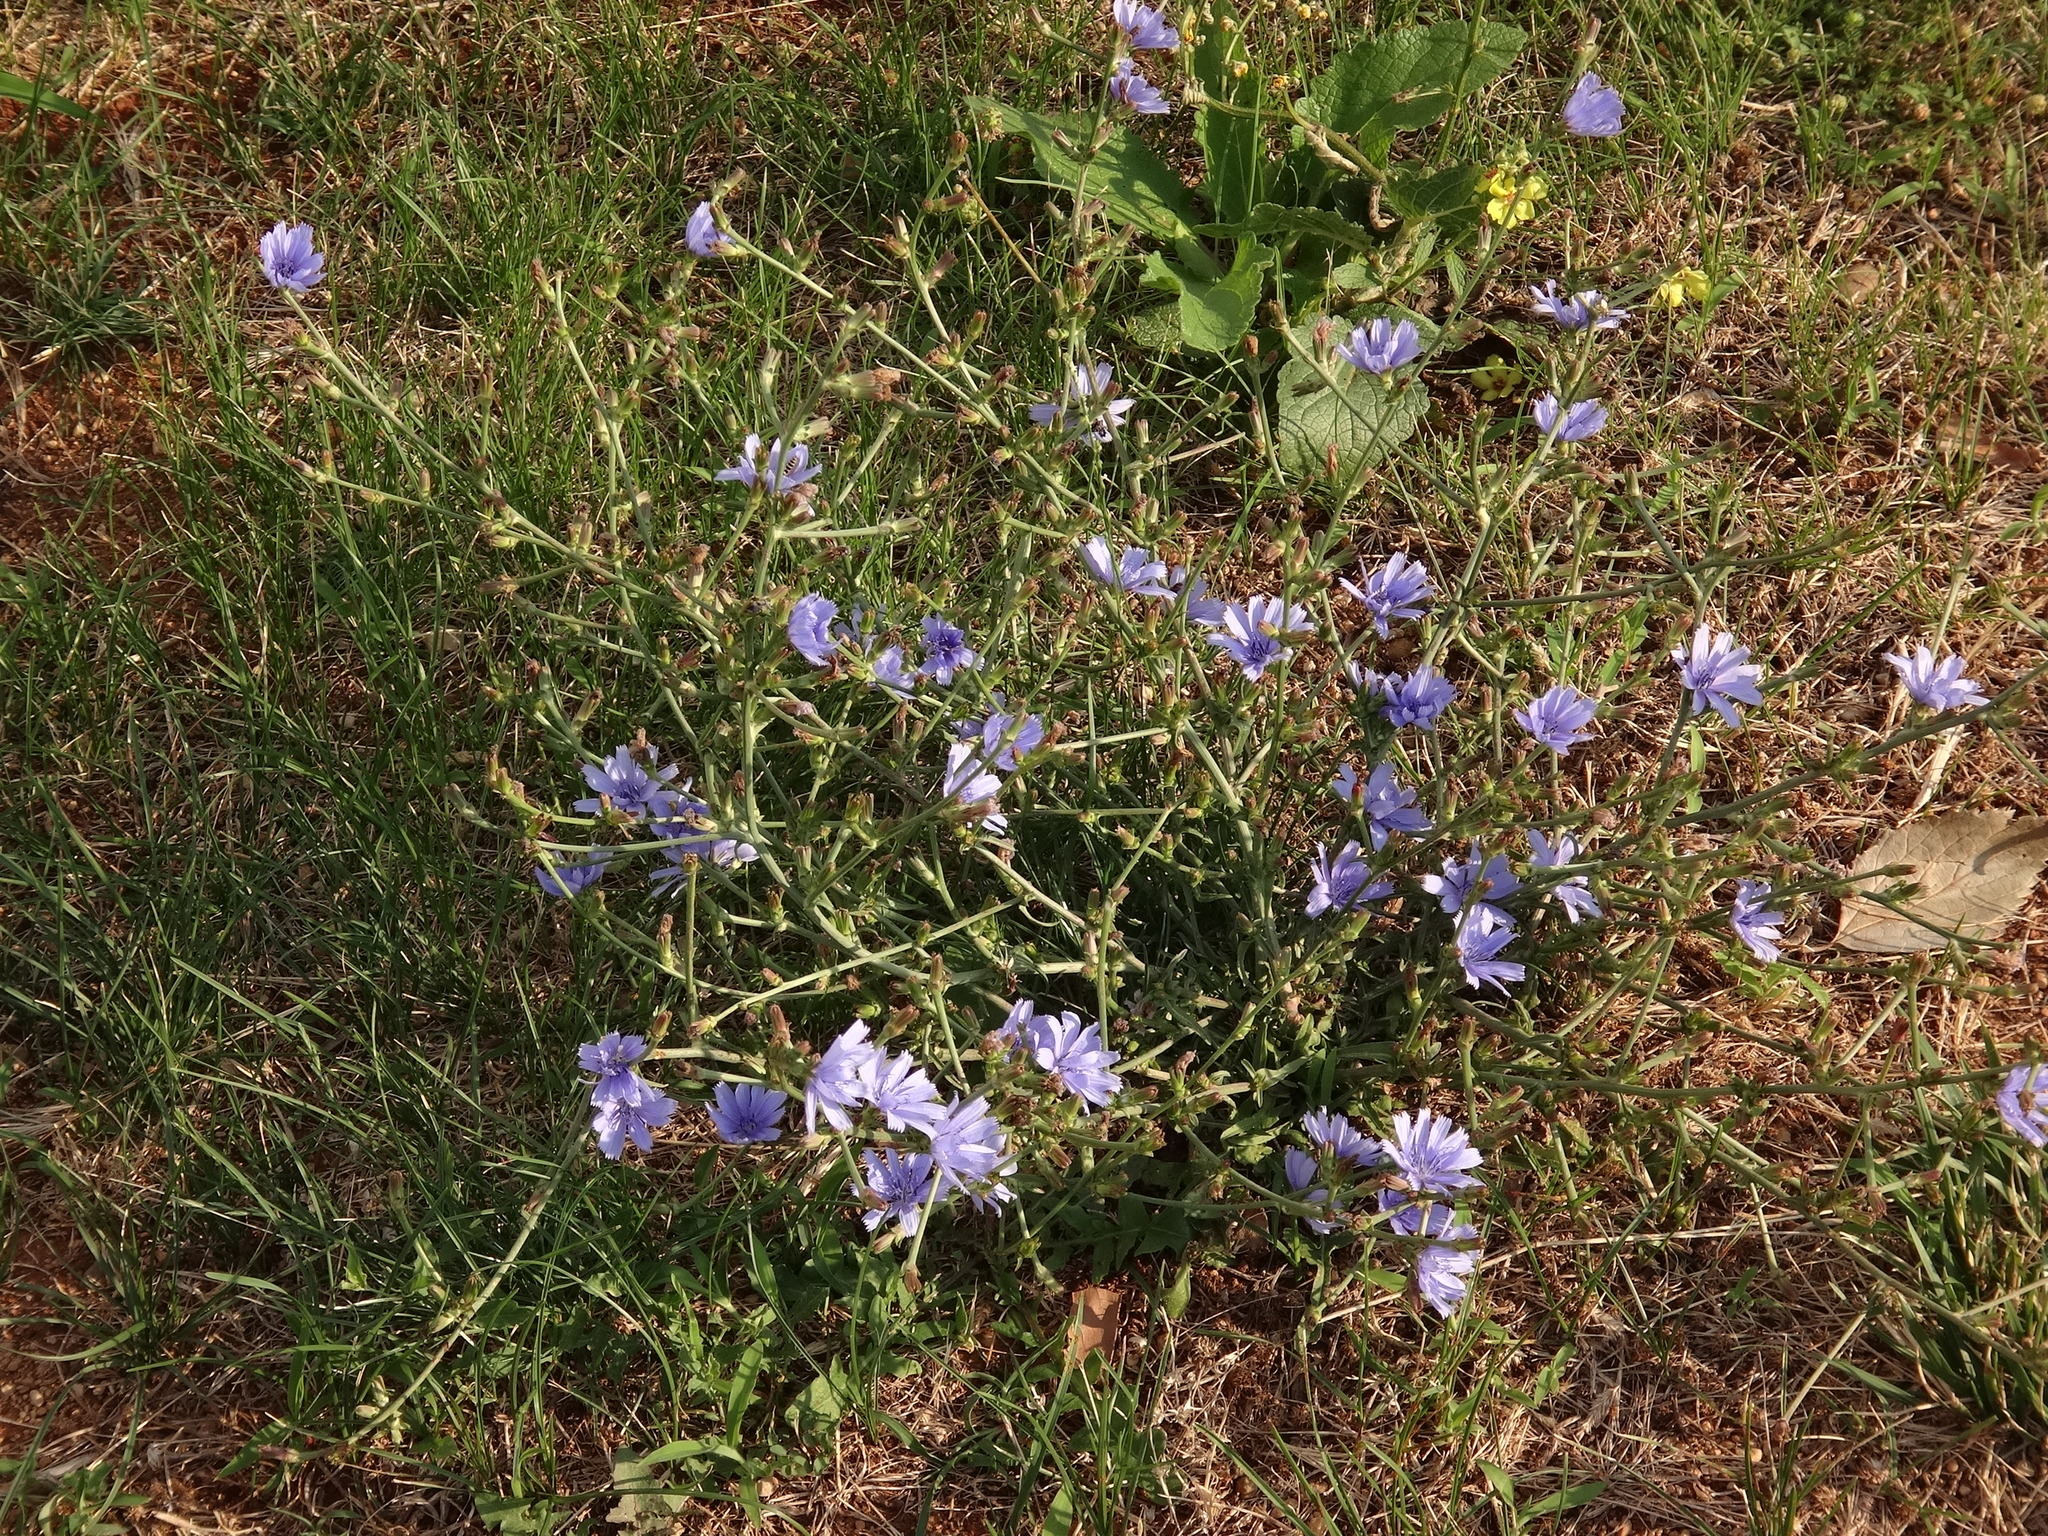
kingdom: Plantae
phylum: Tracheophyta
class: Magnoliopsida
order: Asterales
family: Asteraceae
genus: Cichorium
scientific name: Cichorium intybus
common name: Chicory
